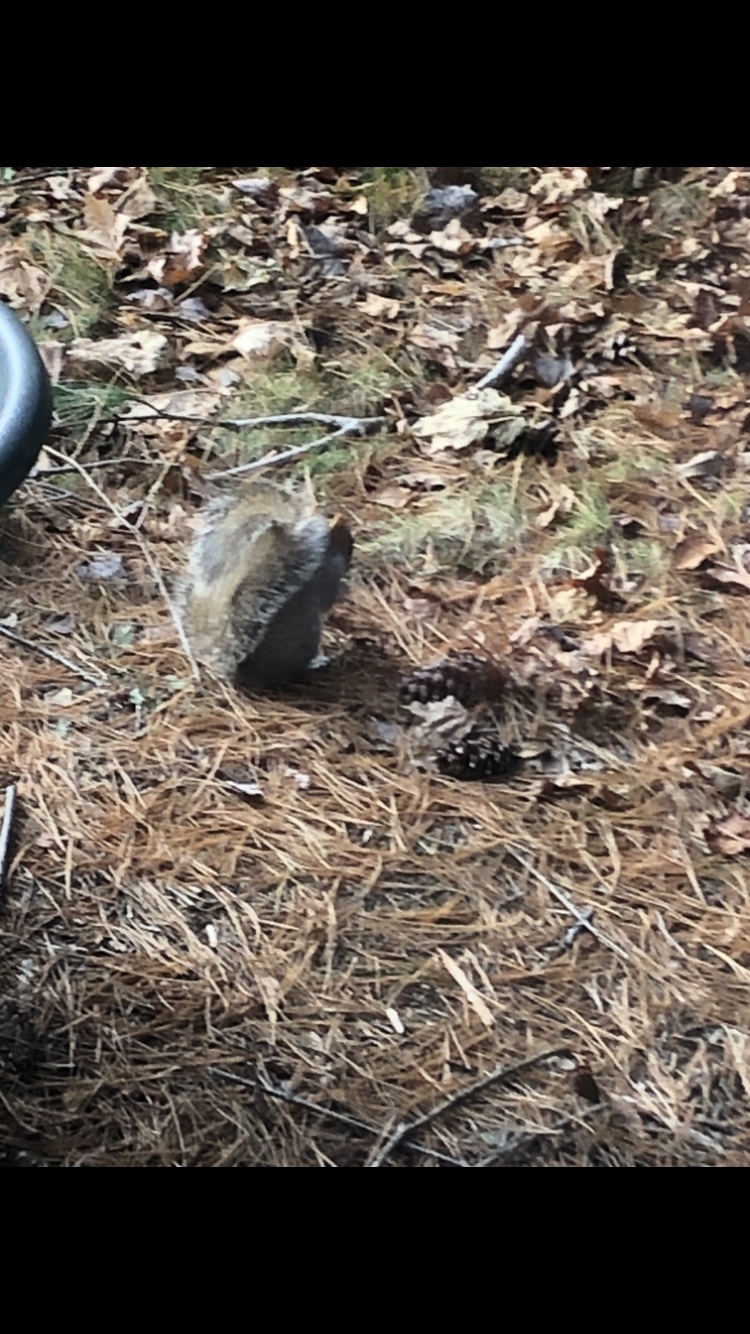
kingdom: Animalia
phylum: Chordata
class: Mammalia
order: Rodentia
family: Sciuridae
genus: Sciurus
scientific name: Sciurus carolinensis
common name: Eastern gray squirrel
